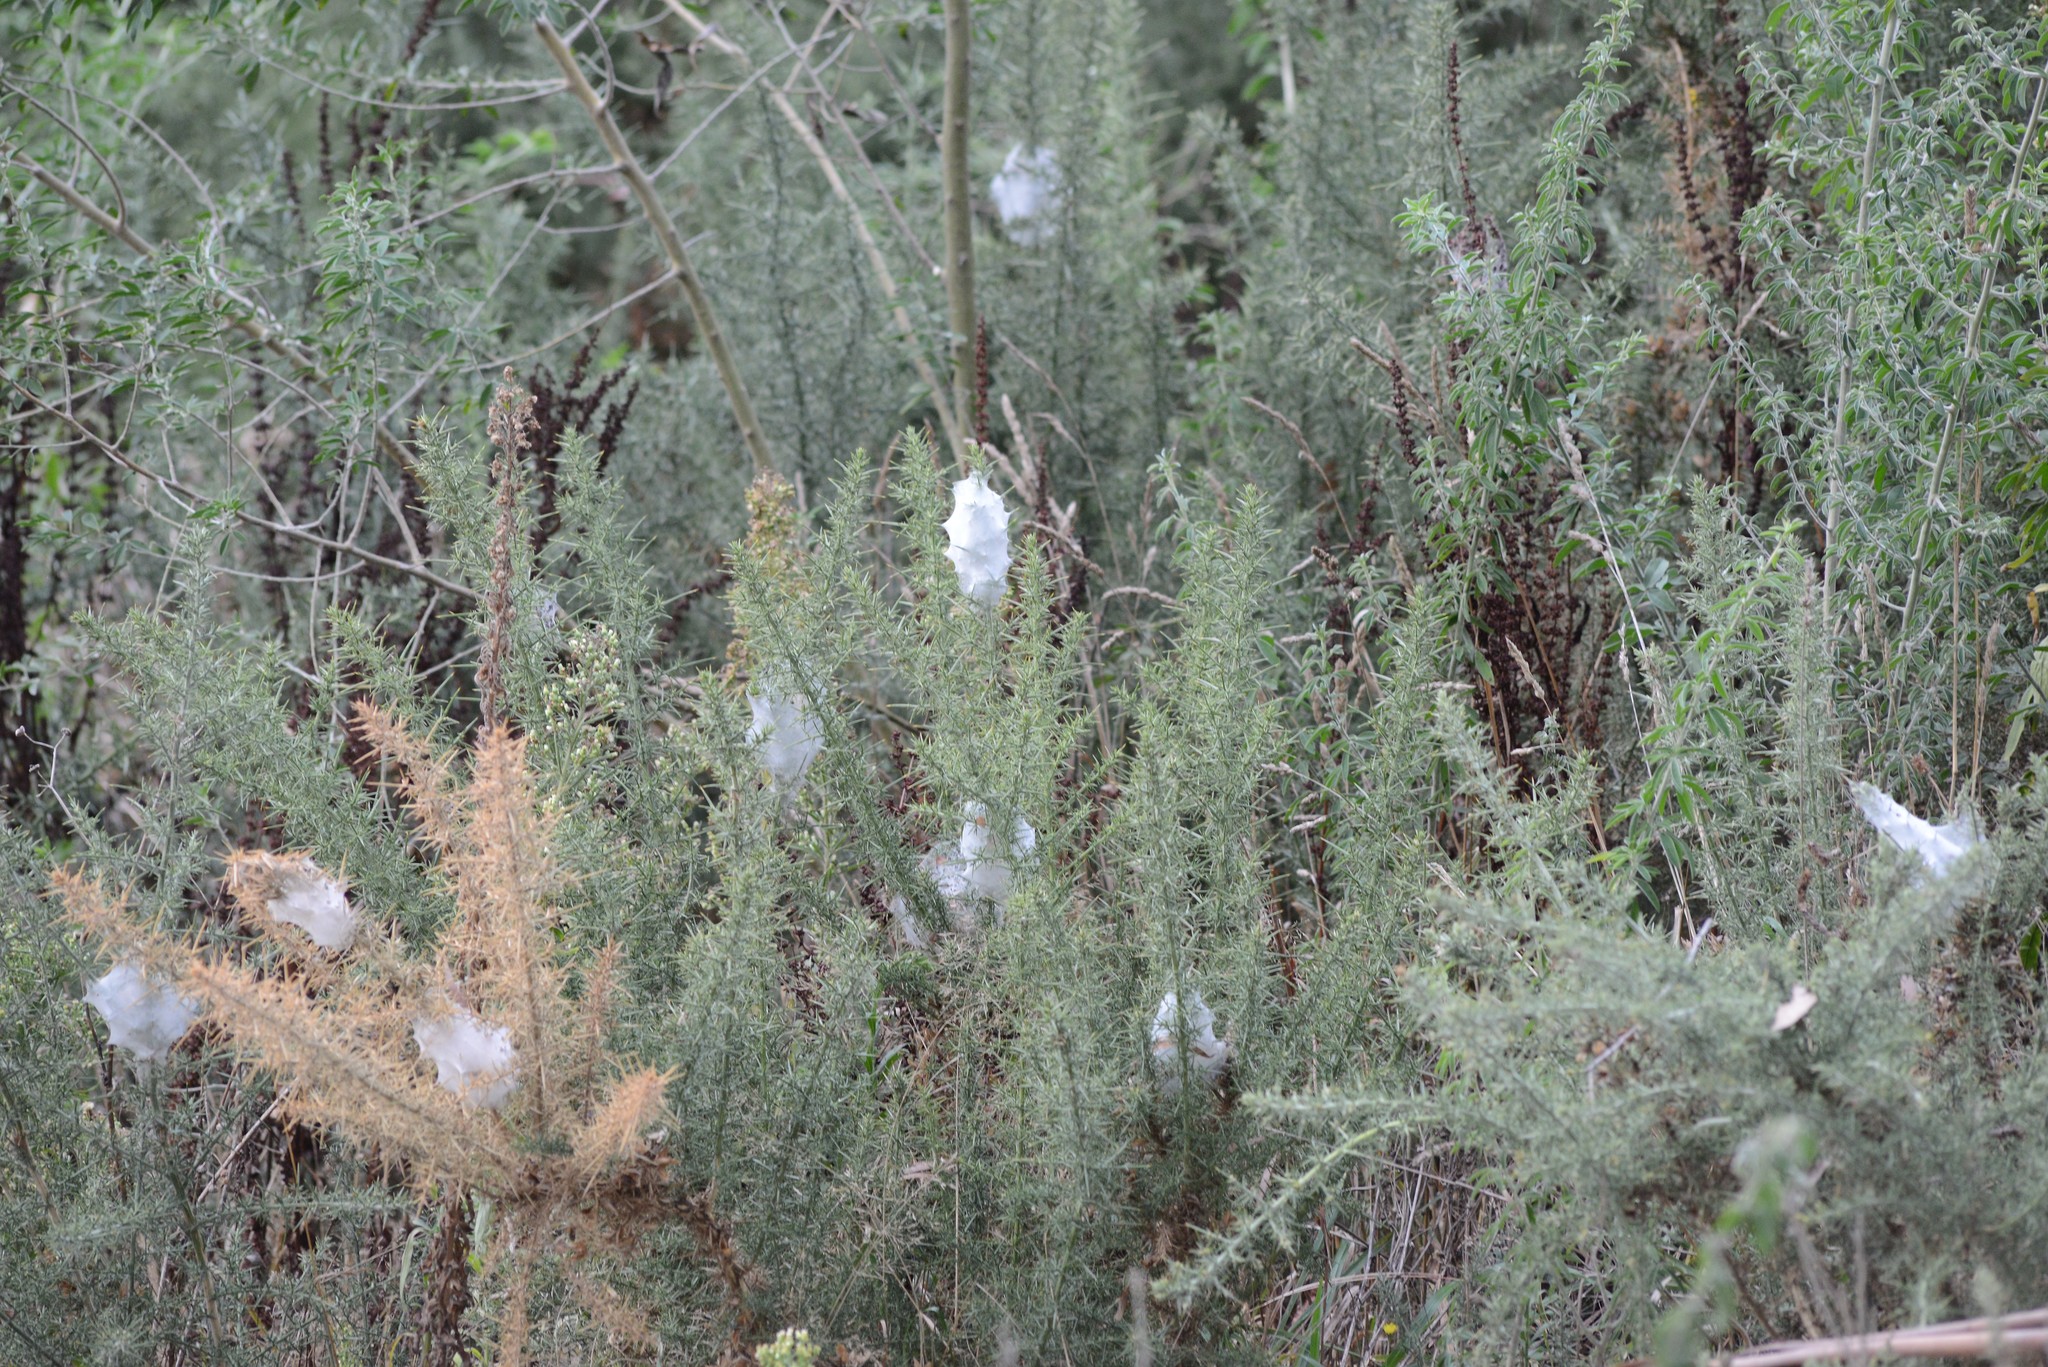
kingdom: Animalia
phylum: Arthropoda
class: Arachnida
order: Araneae
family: Pisauridae
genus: Dolomedes
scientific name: Dolomedes minor
